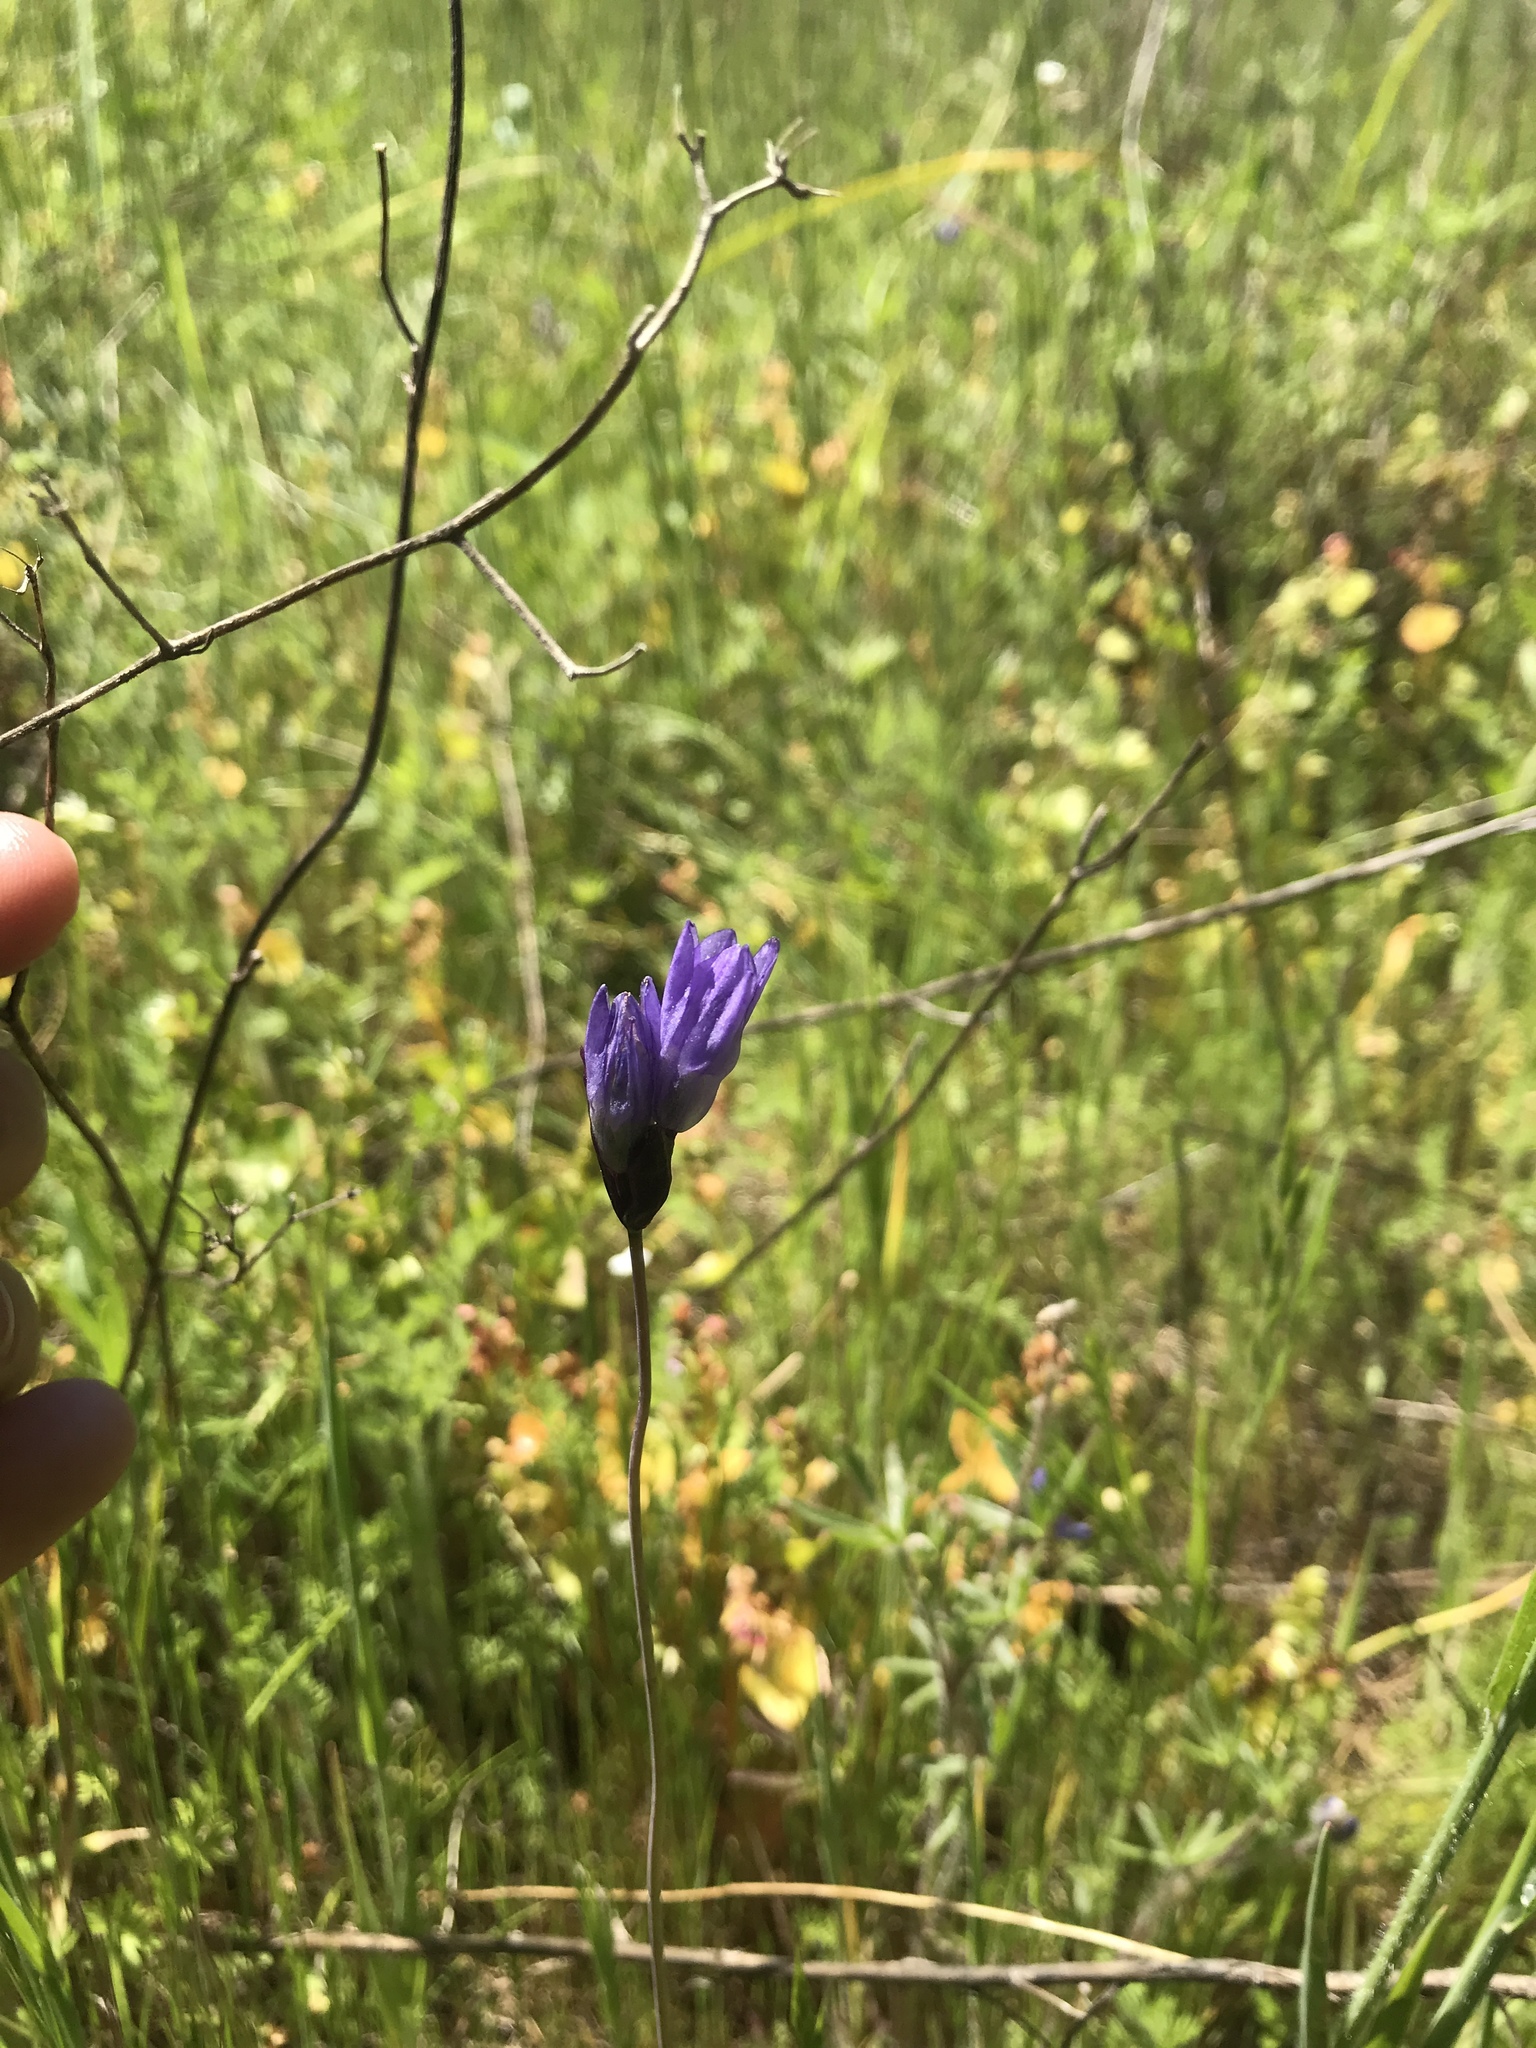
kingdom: Plantae
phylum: Tracheophyta
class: Liliopsida
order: Asparagales
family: Asparagaceae
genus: Dipterostemon
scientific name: Dipterostemon capitatus
